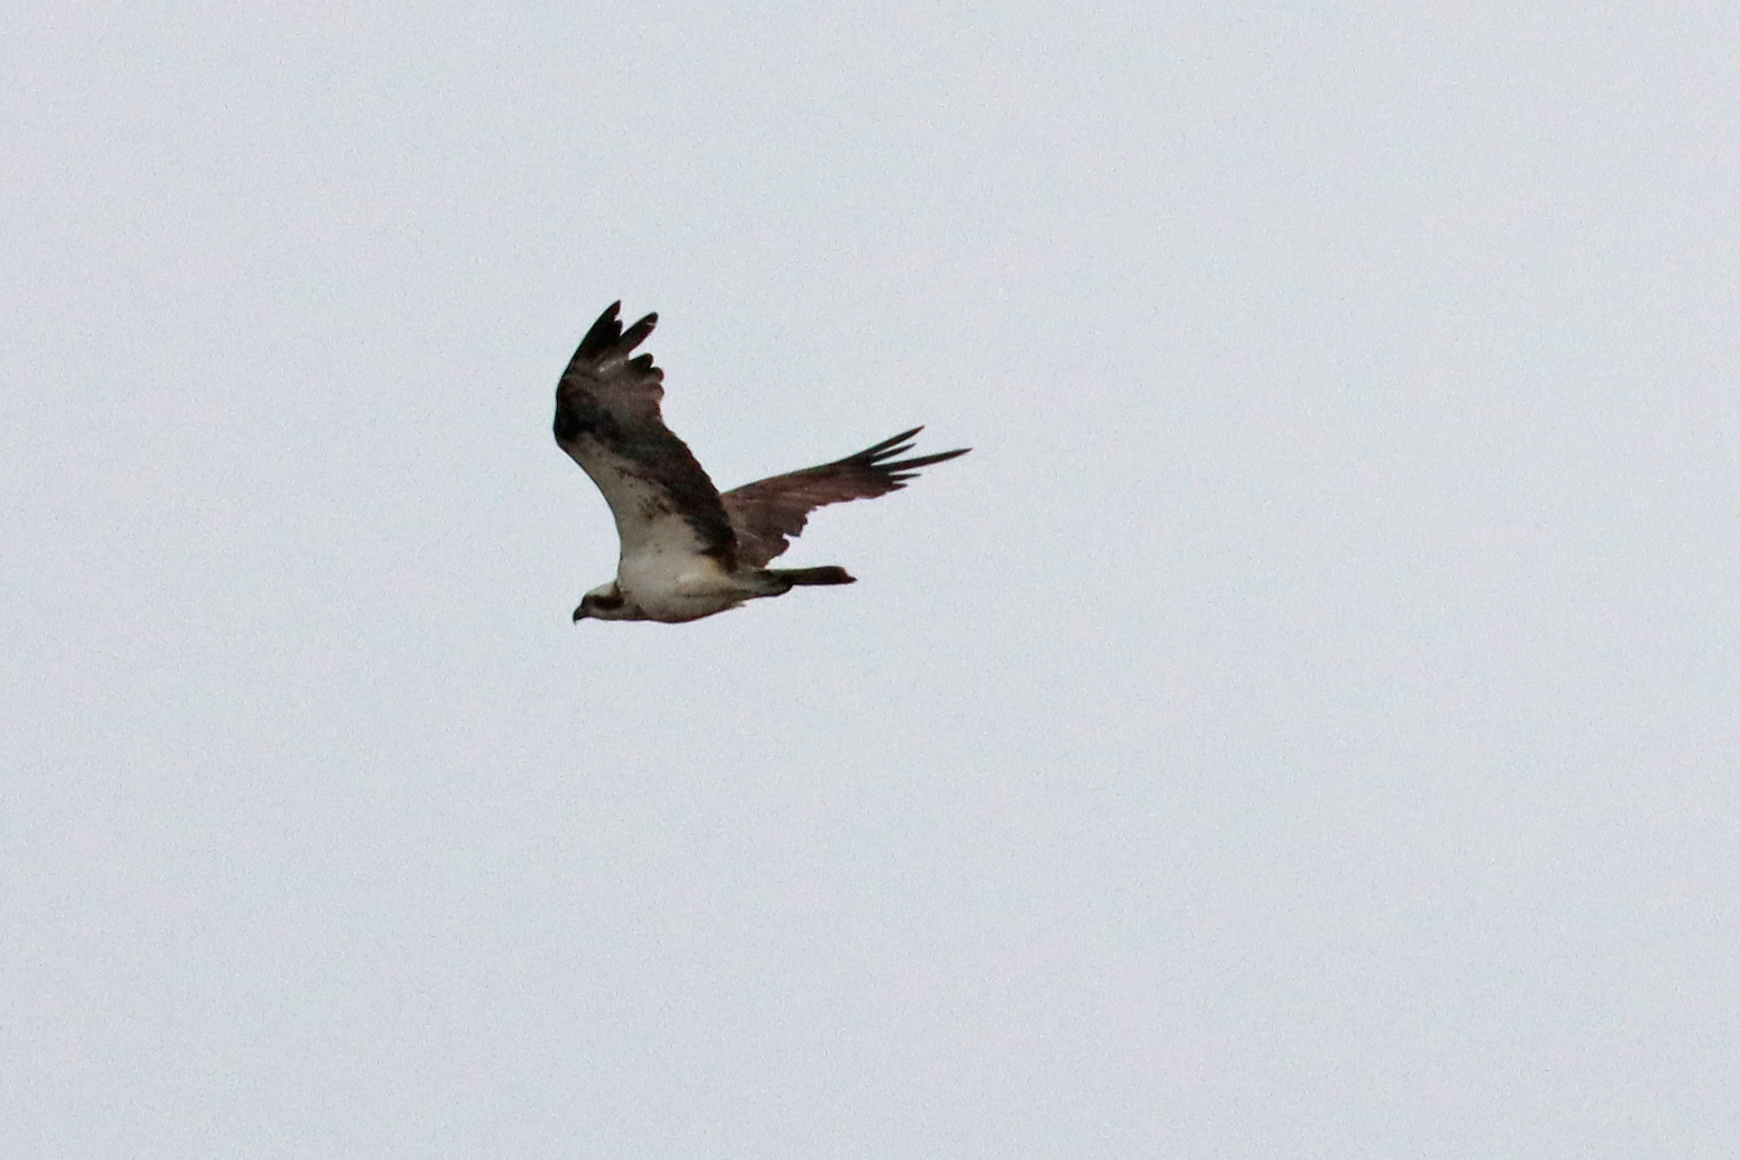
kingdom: Animalia
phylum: Chordata
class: Aves
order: Accipitriformes
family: Pandionidae
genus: Pandion
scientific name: Pandion haliaetus
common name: Osprey
